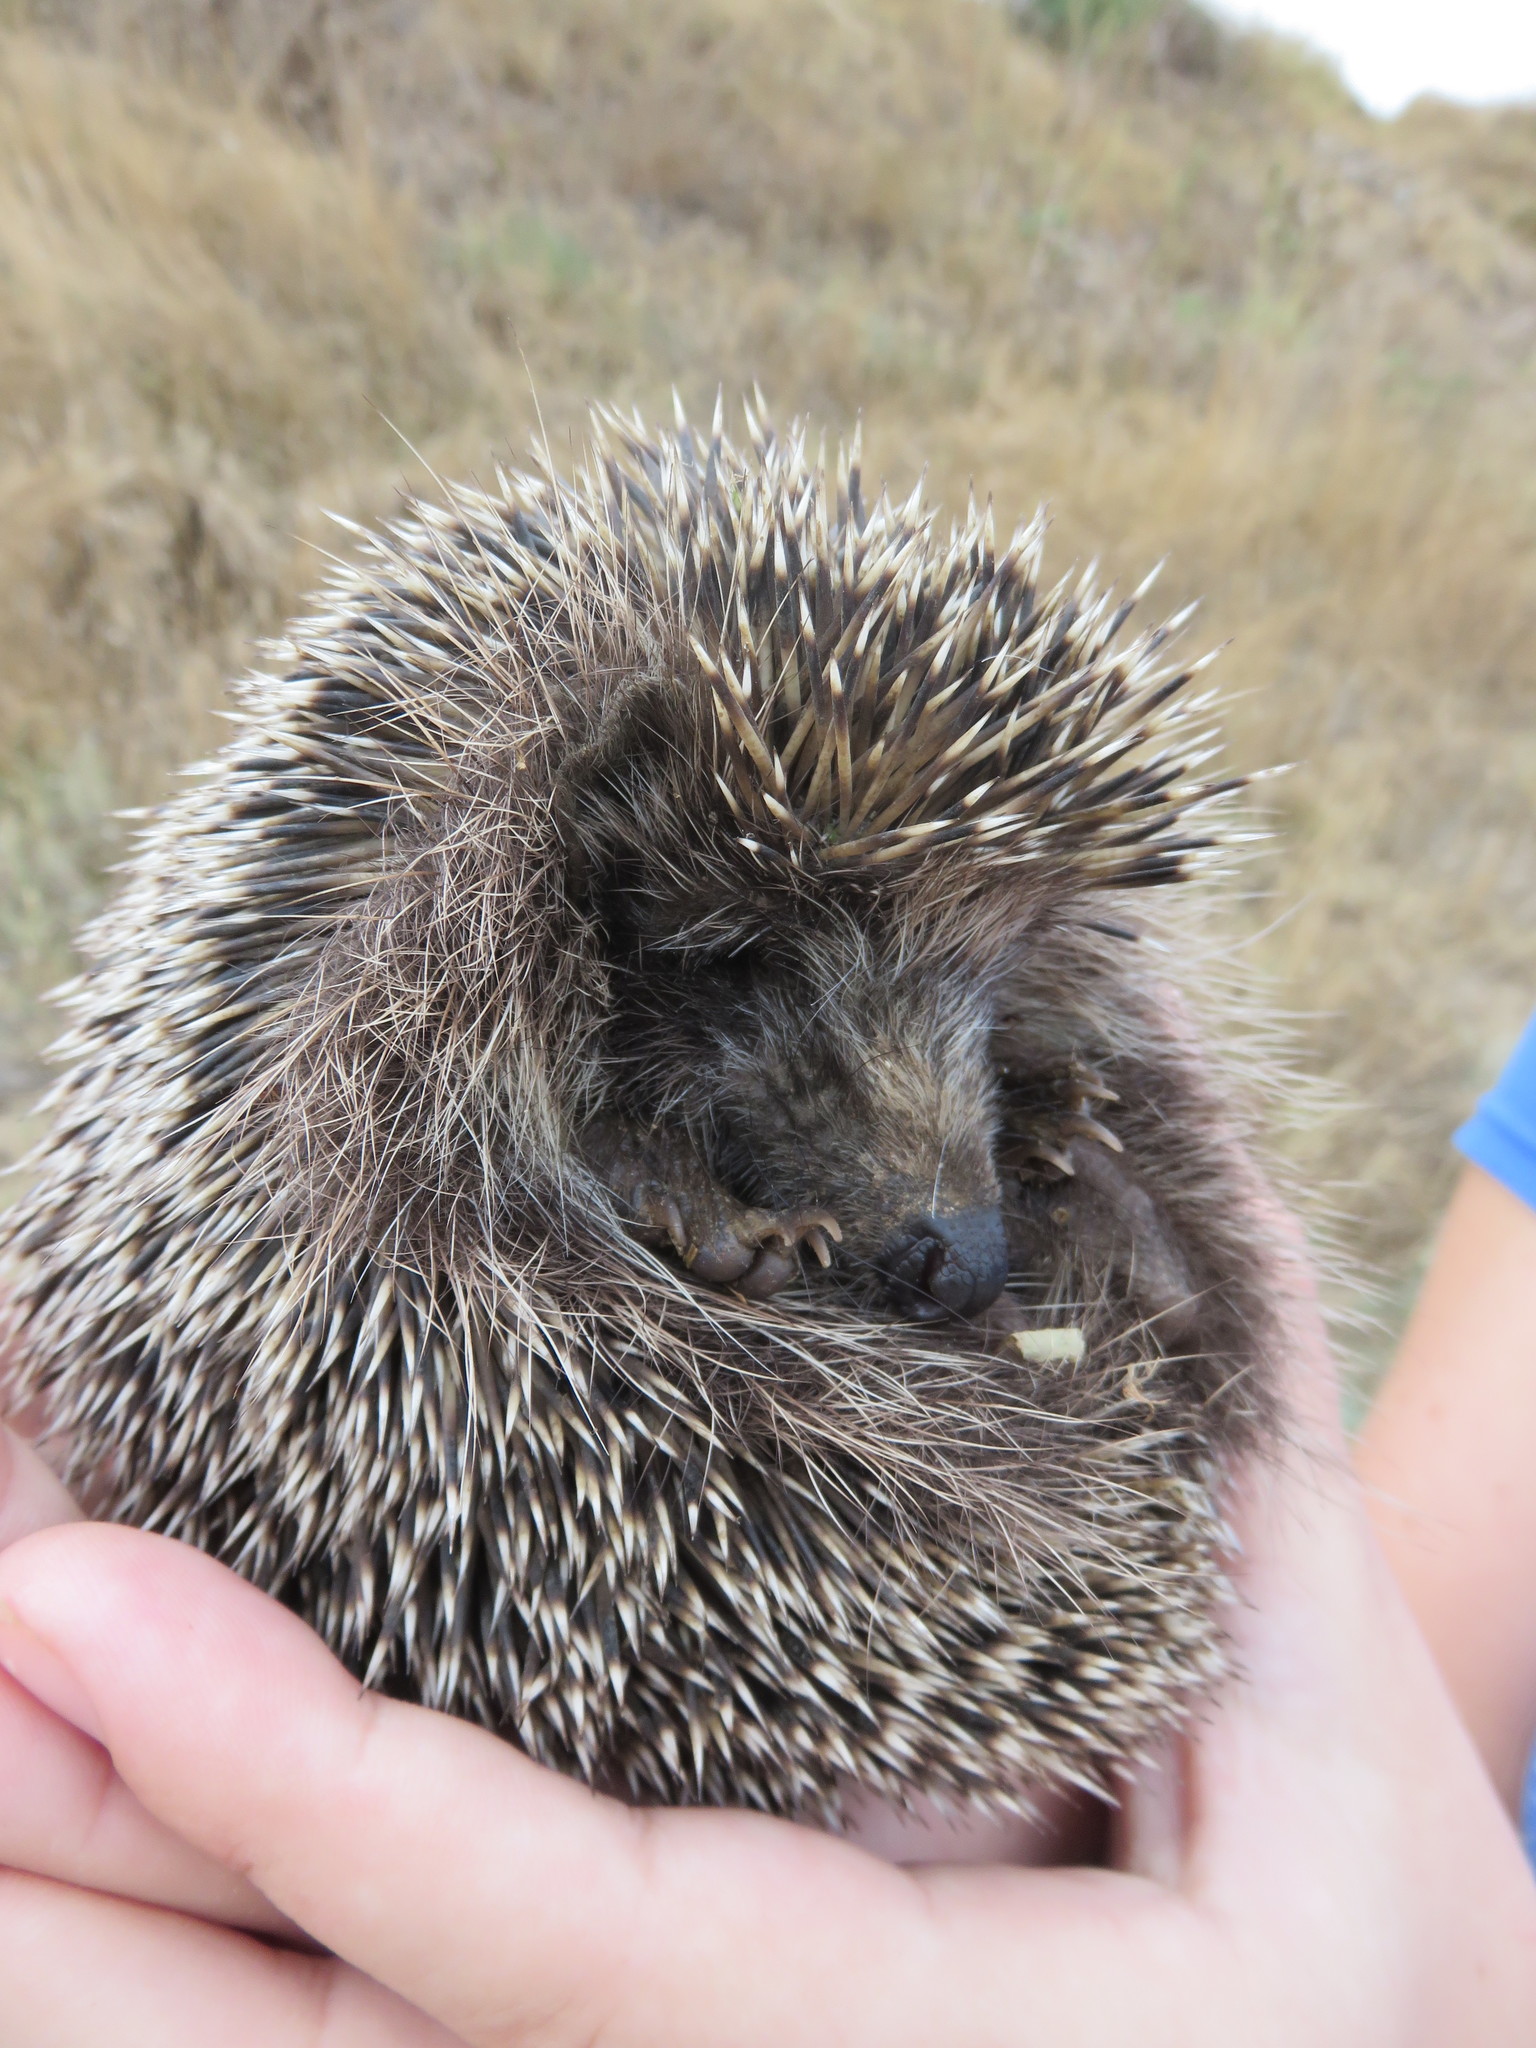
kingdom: Animalia
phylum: Chordata
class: Mammalia
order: Erinaceomorpha
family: Erinaceidae
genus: Erinaceus
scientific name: Erinaceus roumanicus
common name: Northern white-breasted hedgehog
